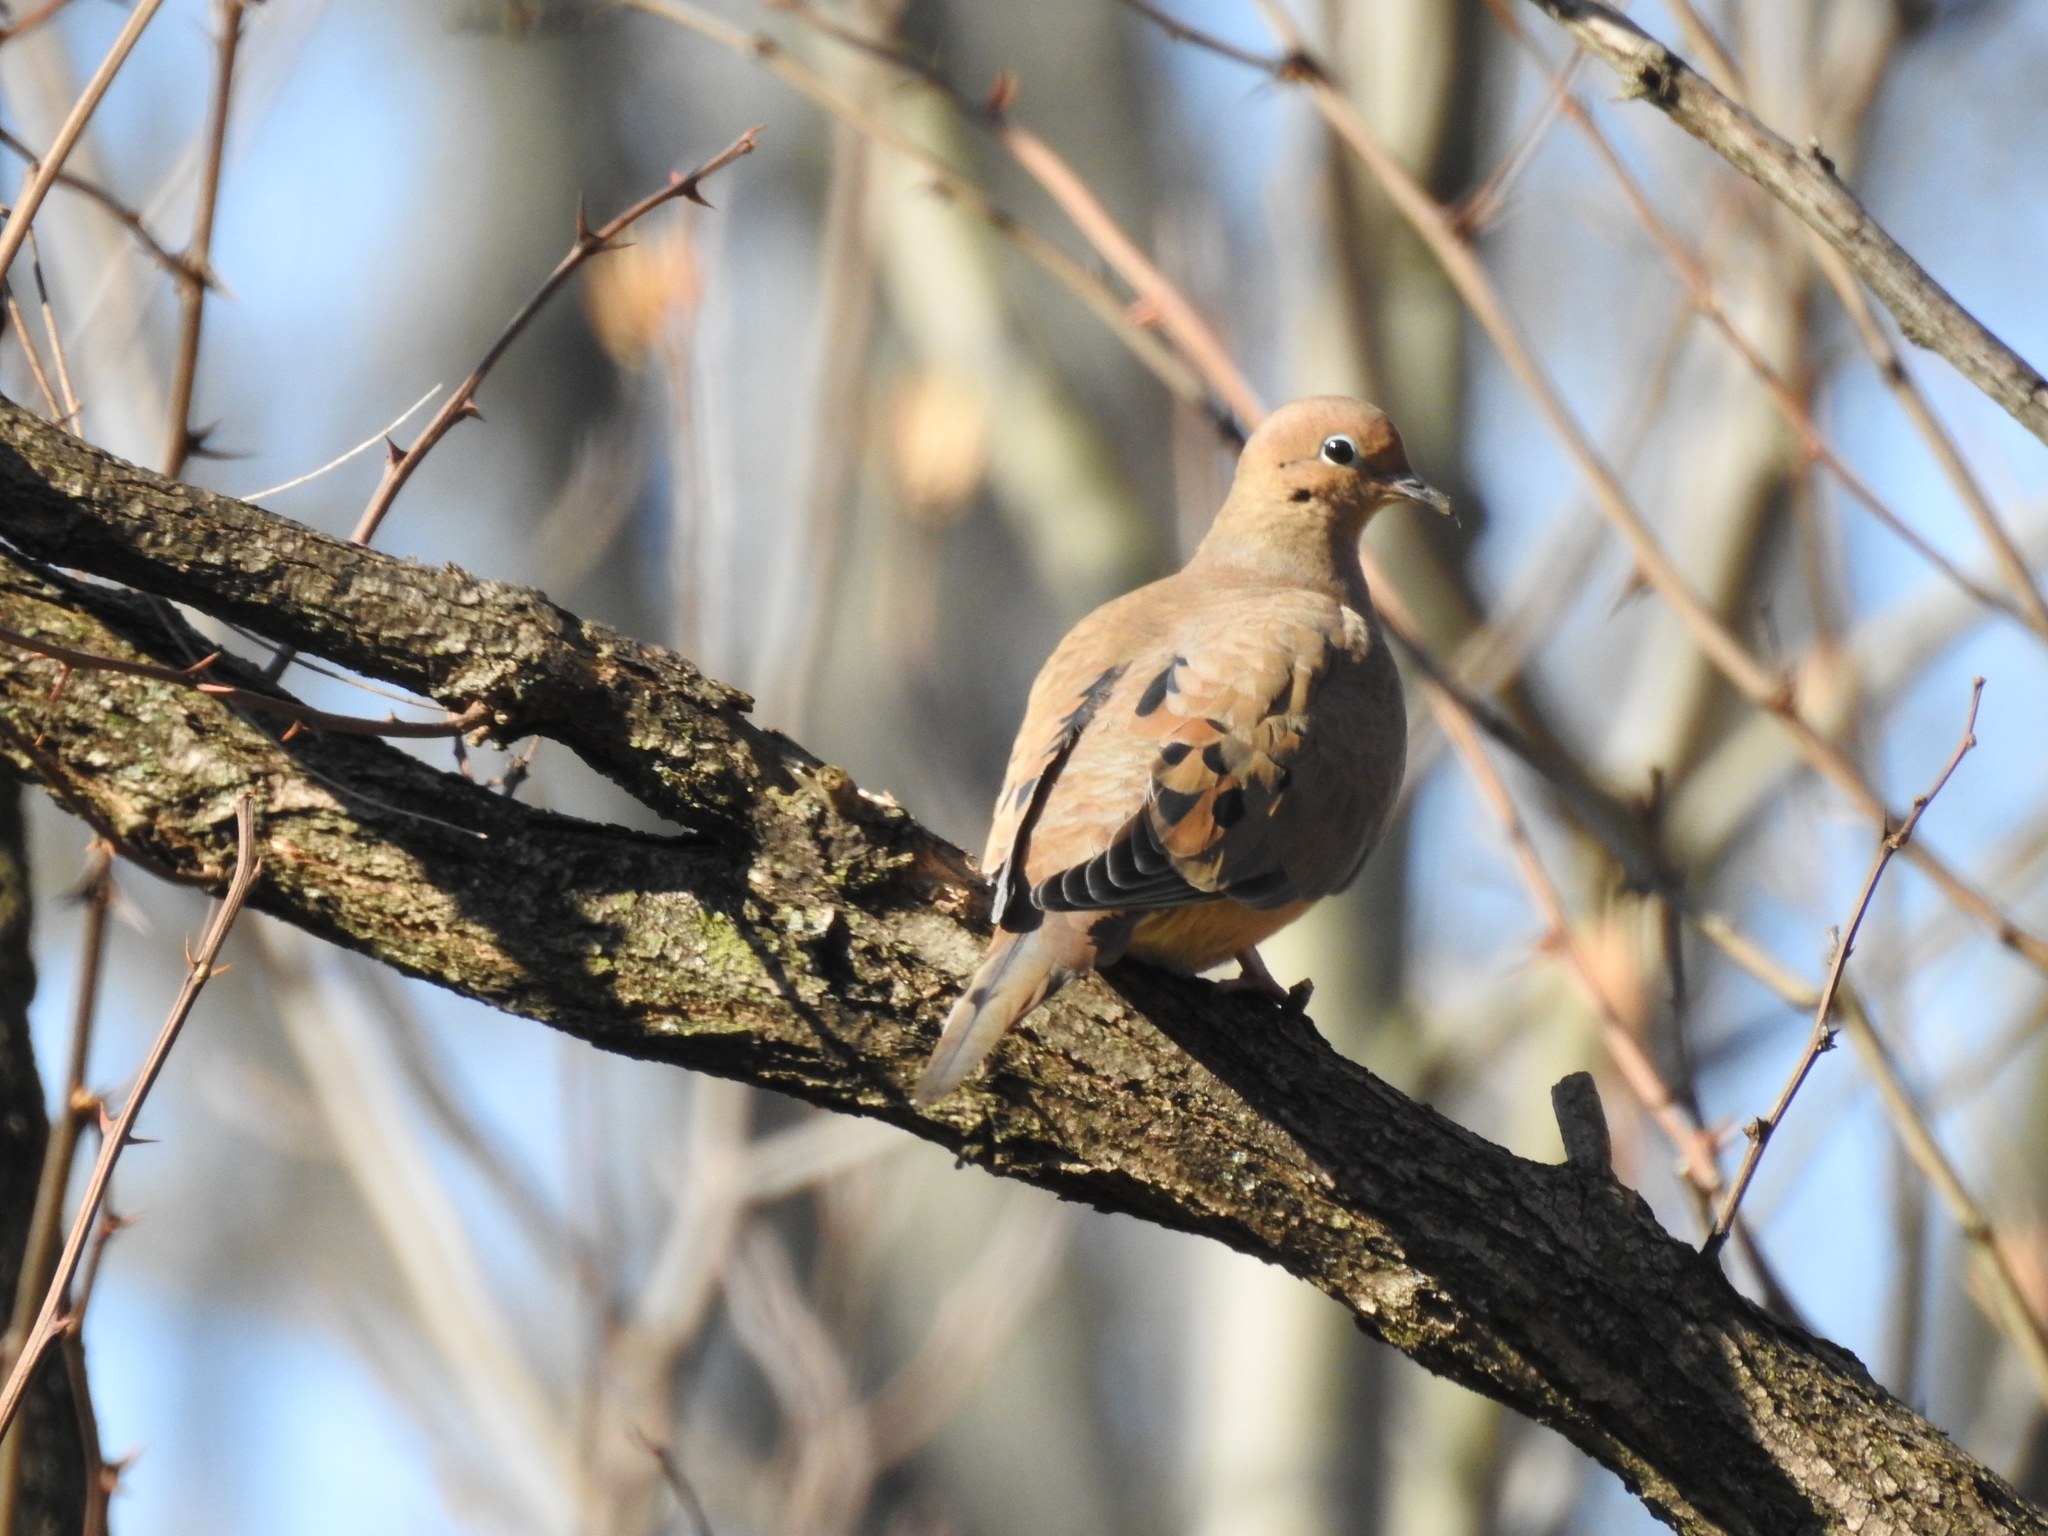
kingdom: Animalia
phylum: Chordata
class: Aves
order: Columbiformes
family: Columbidae
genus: Zenaida
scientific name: Zenaida macroura
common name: Mourning dove
